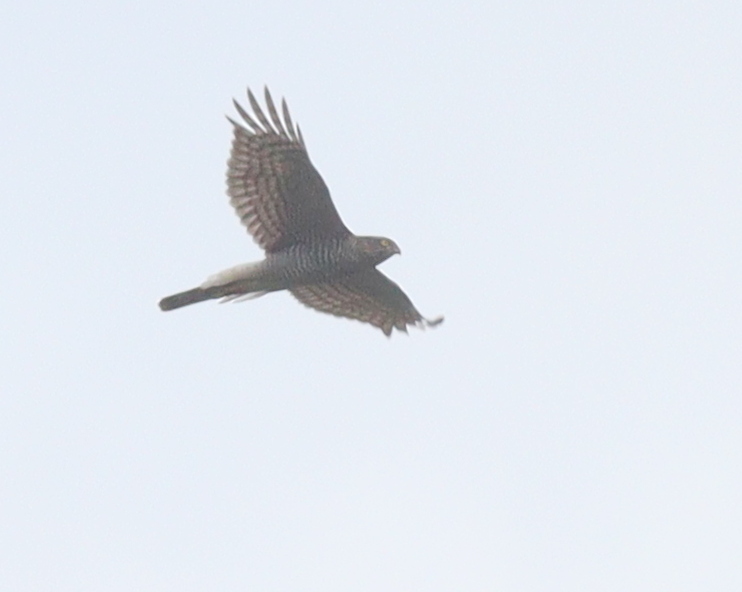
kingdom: Animalia
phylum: Chordata
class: Aves
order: Accipitriformes
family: Accipitridae
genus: Accipiter
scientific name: Accipiter nisus
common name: Eurasian sparrowhawk
